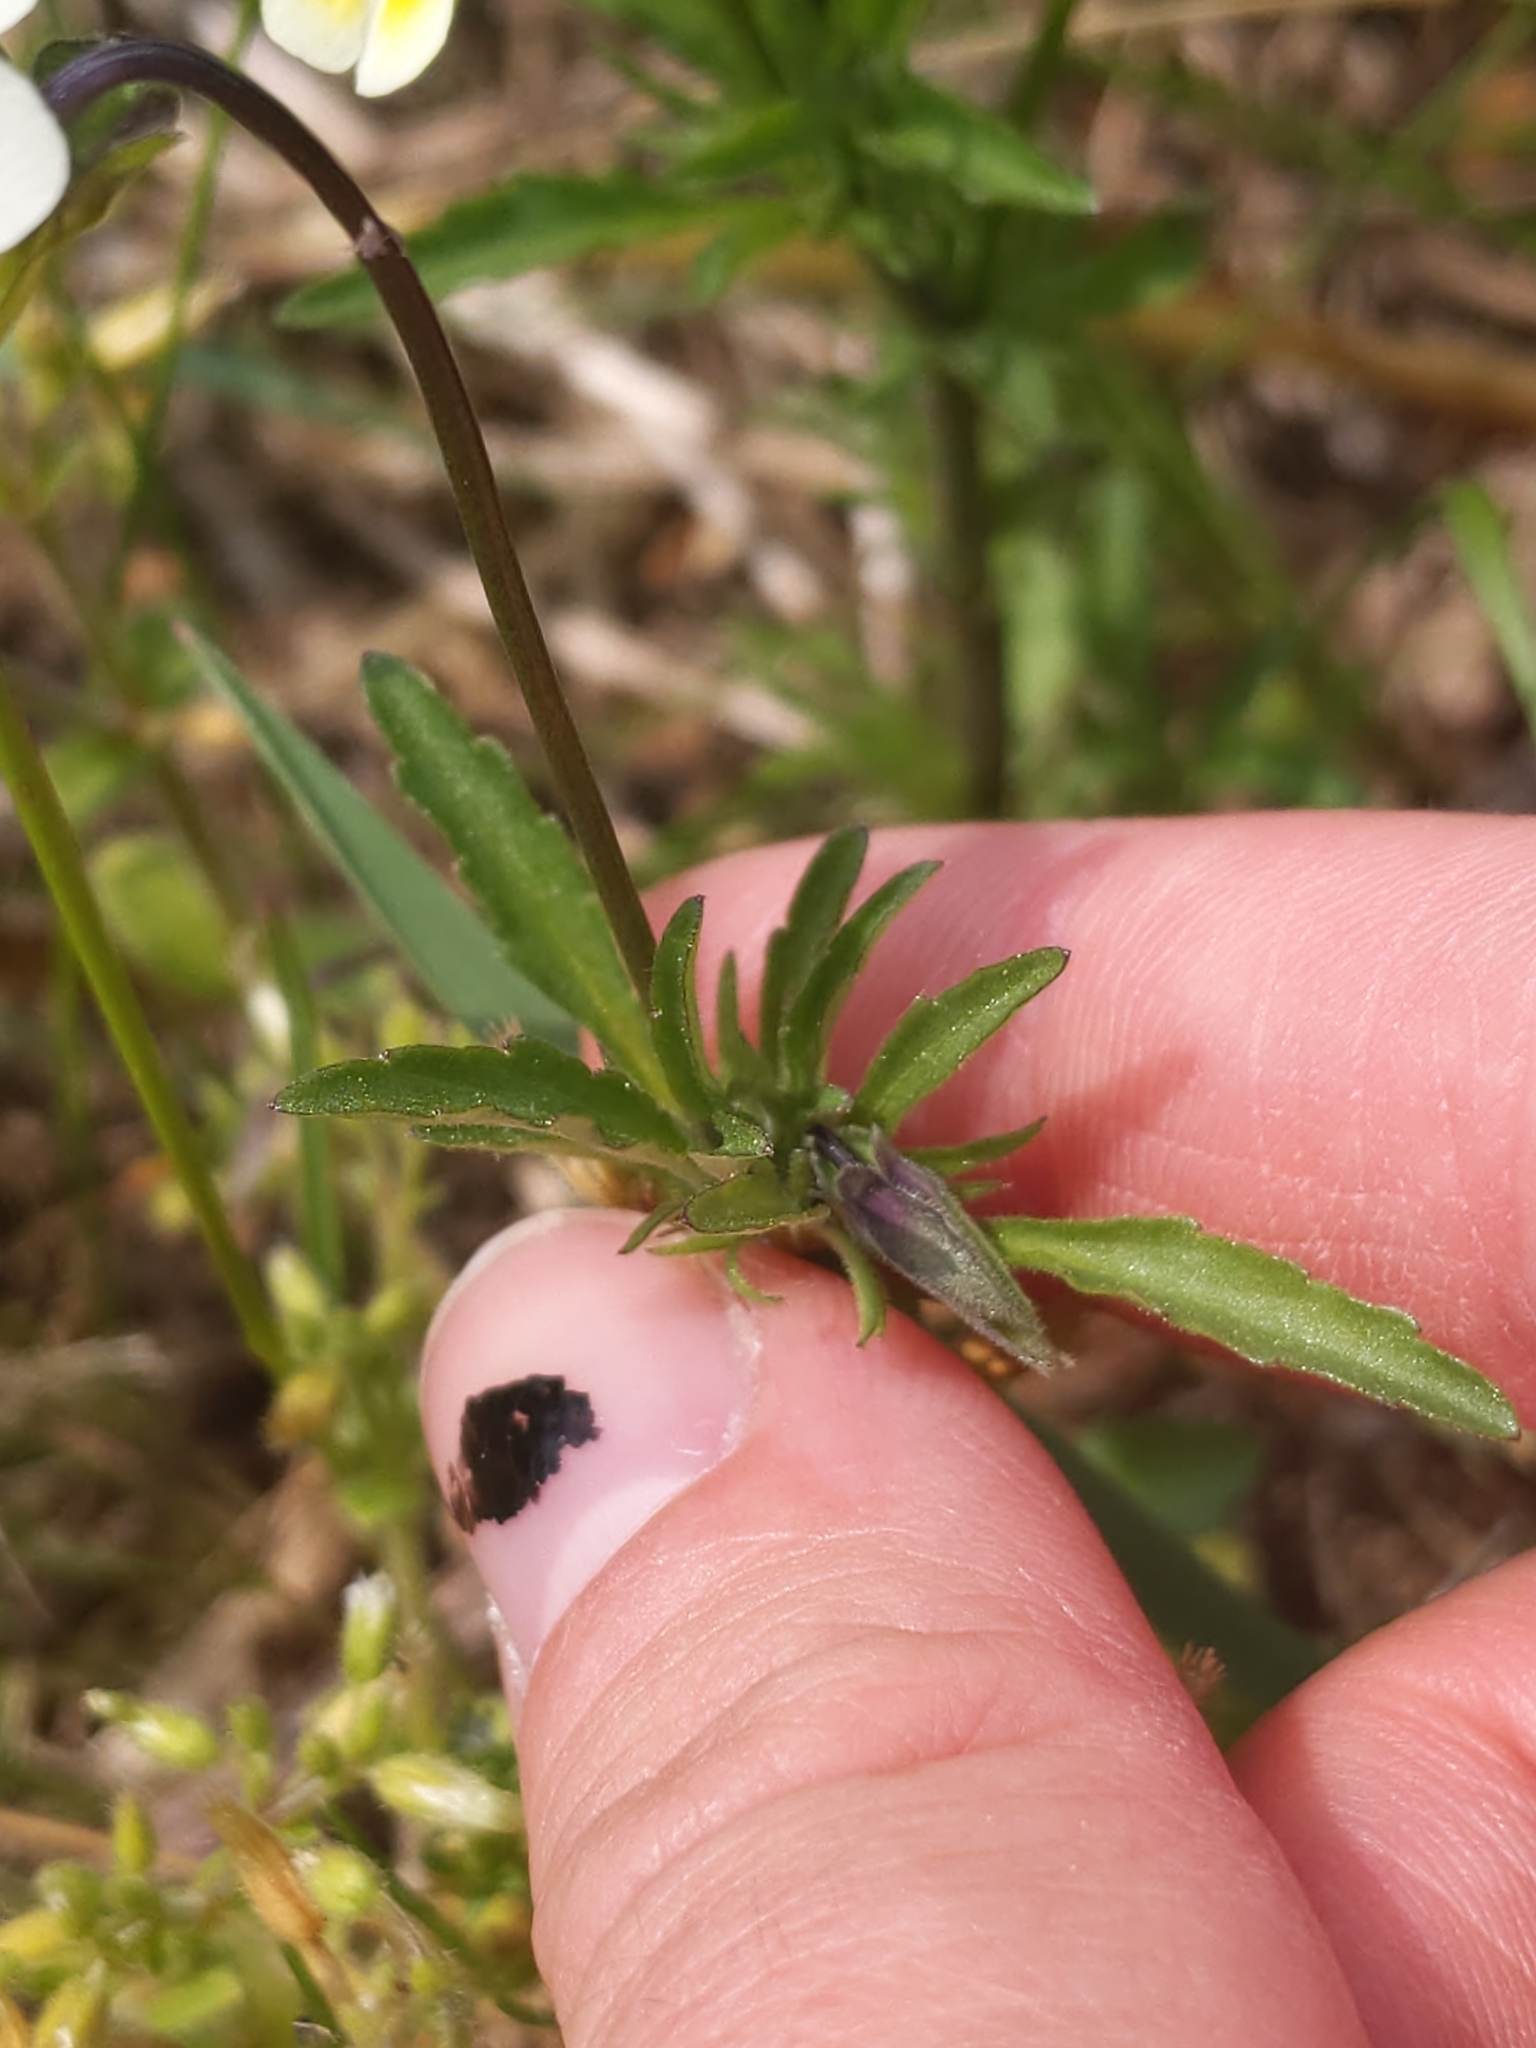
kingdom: Plantae
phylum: Tracheophyta
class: Magnoliopsida
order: Malpighiales
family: Violaceae
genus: Viola
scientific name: Viola arvensis
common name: Field pansy
